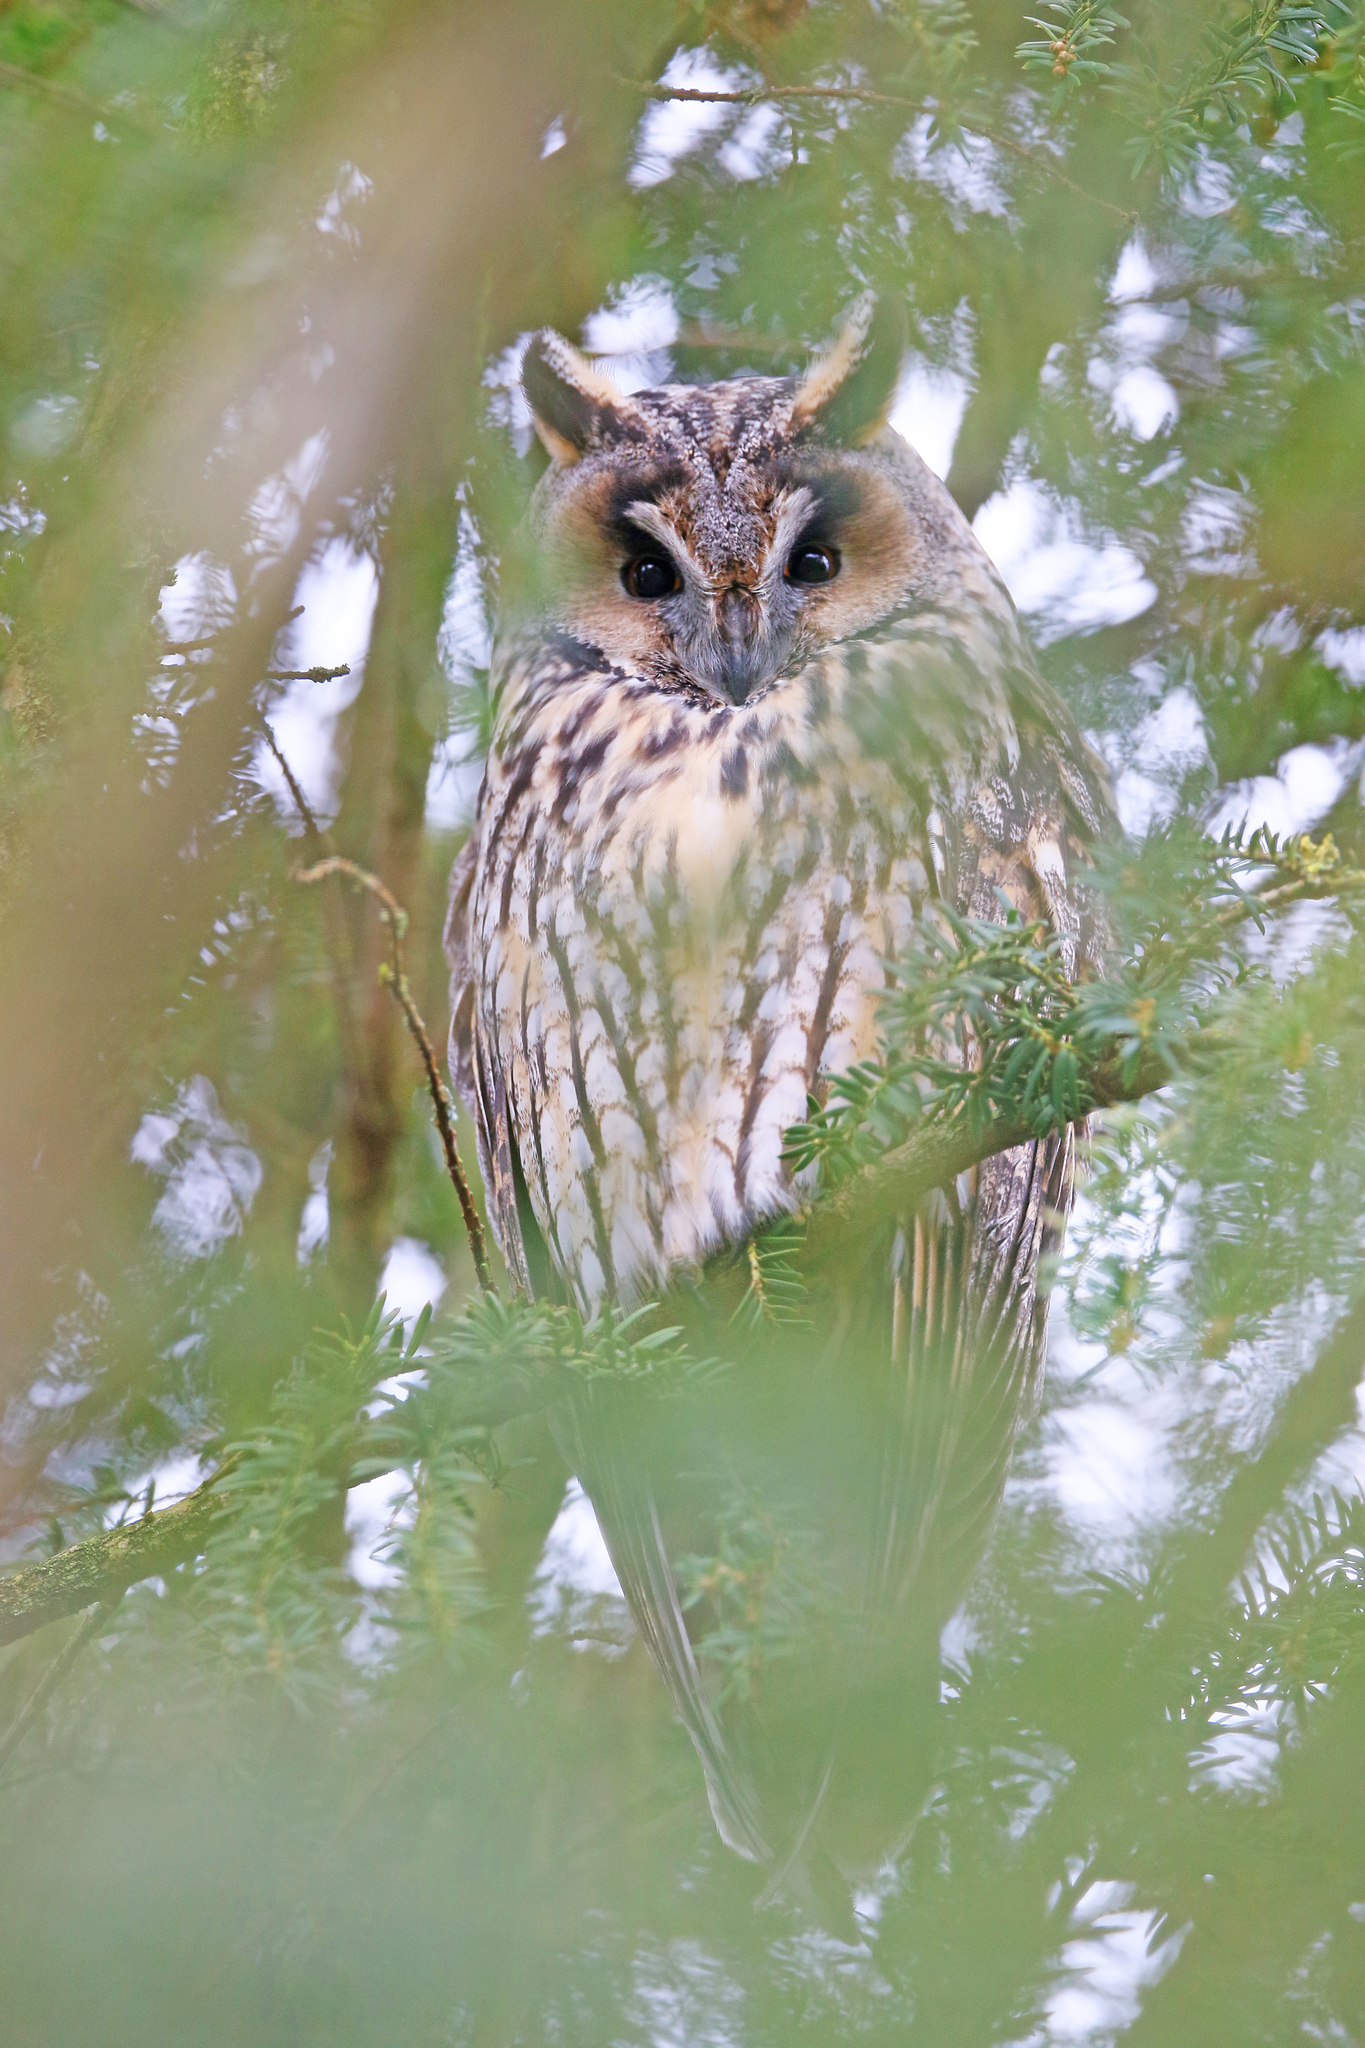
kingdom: Animalia
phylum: Chordata
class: Aves
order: Strigiformes
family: Strigidae
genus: Asio
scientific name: Asio otus
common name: Long-eared owl
